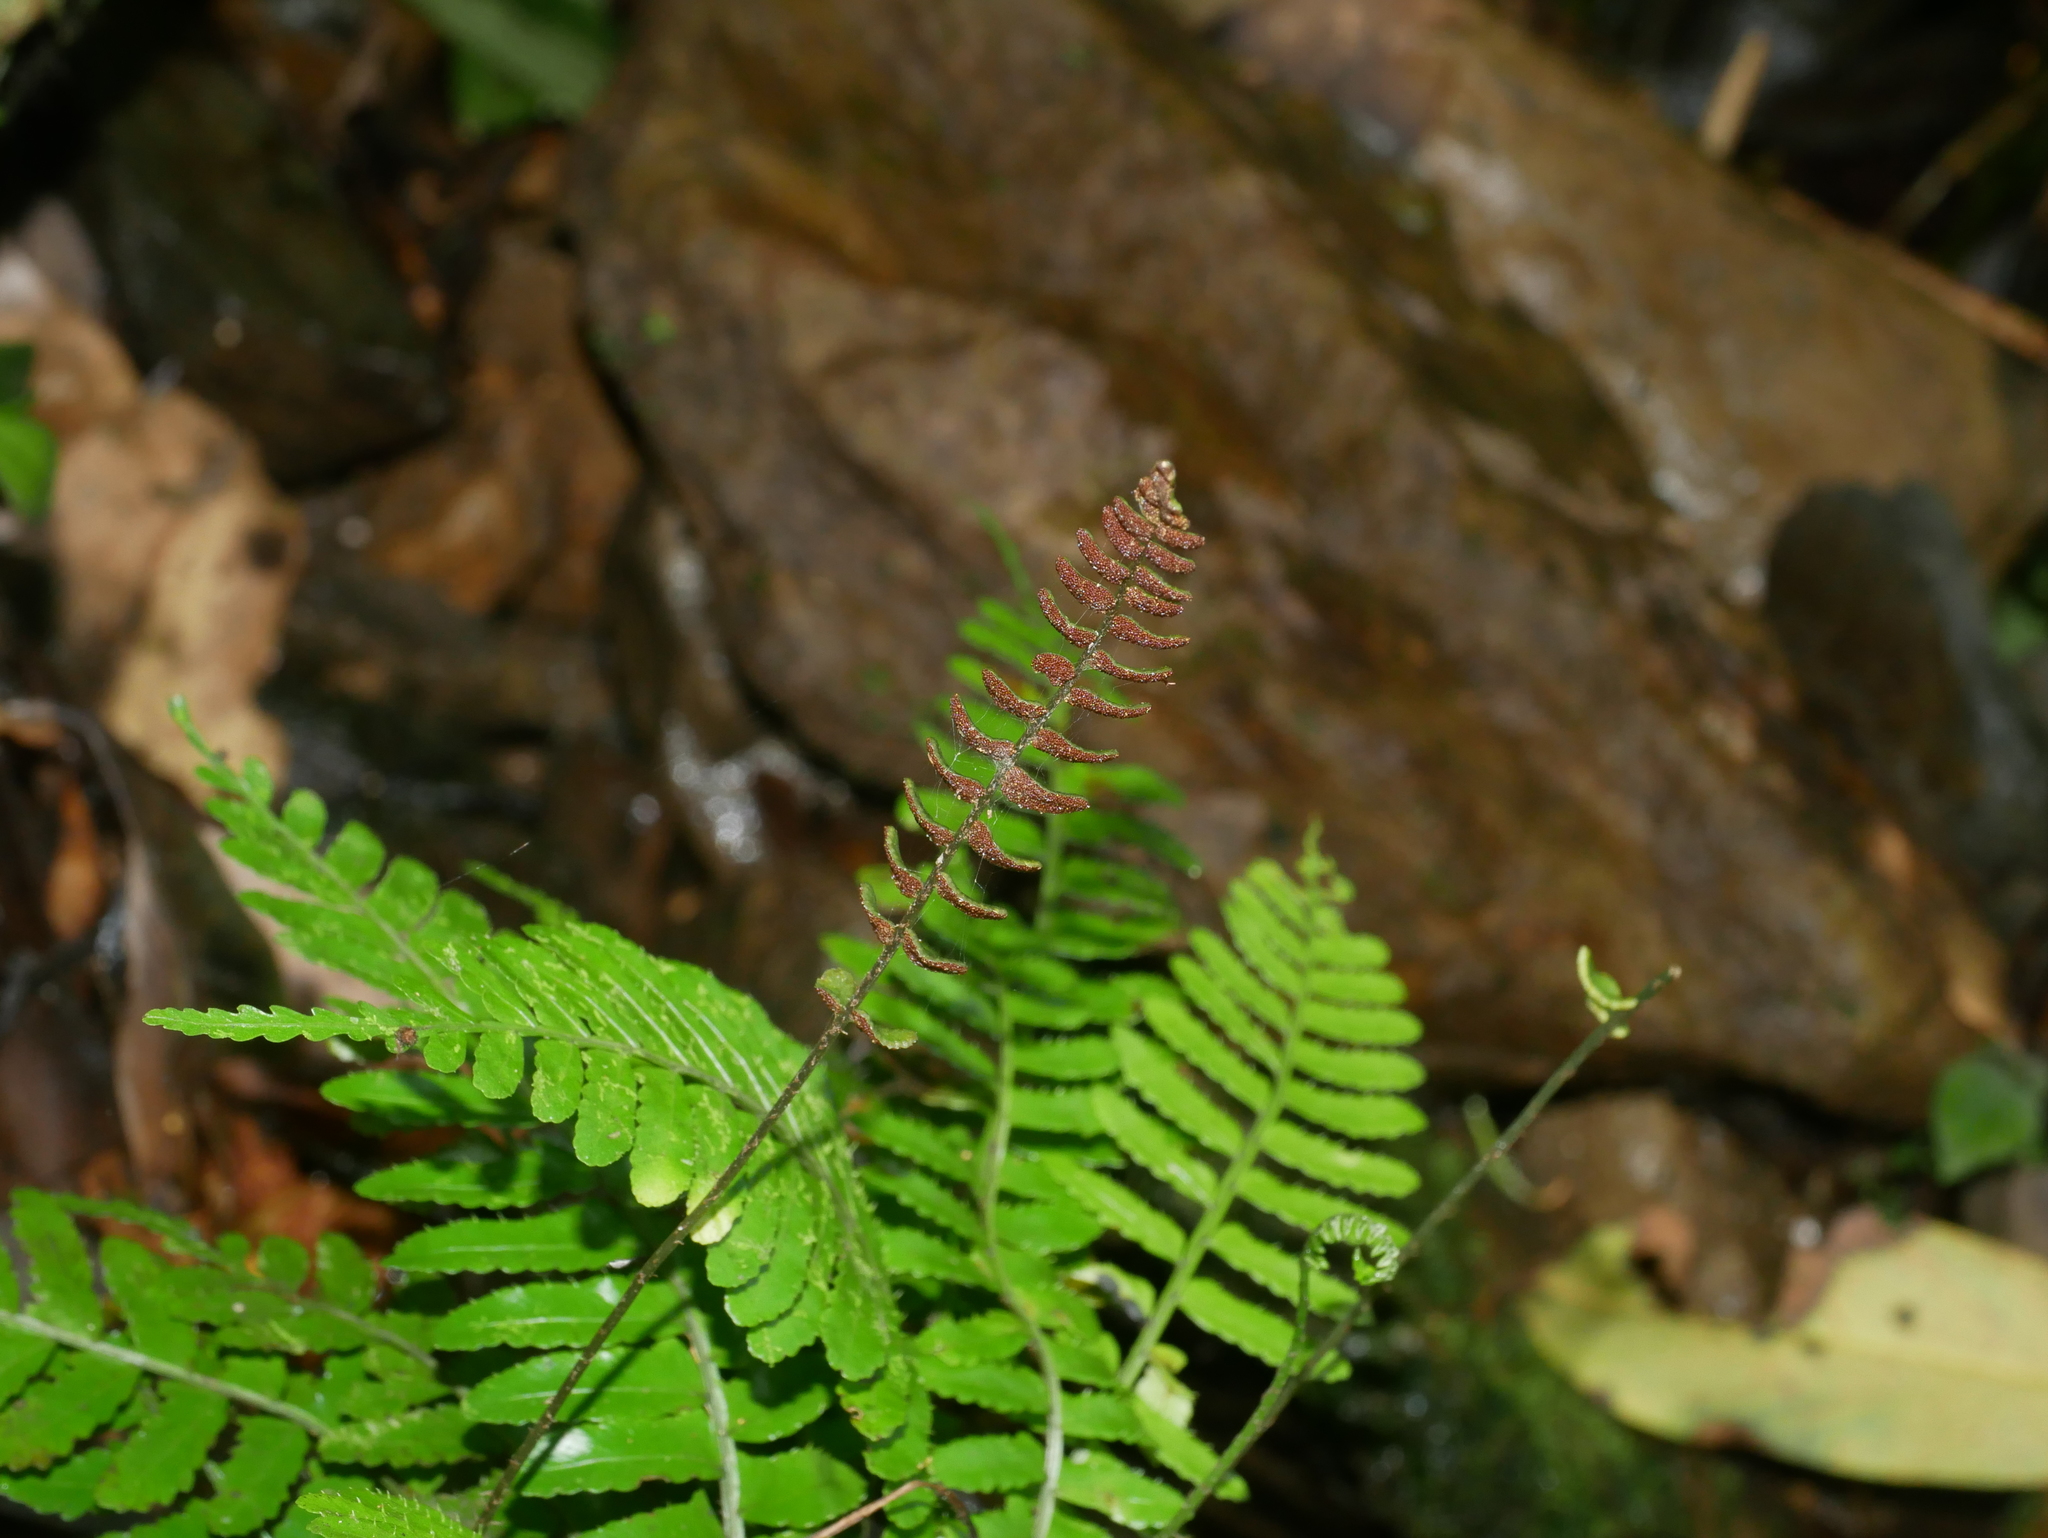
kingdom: Plantae
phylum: Tracheophyta
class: Polypodiopsida
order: Polypodiales
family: Dryopteridaceae
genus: Bolbitis
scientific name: Bolbitis appendiculata
